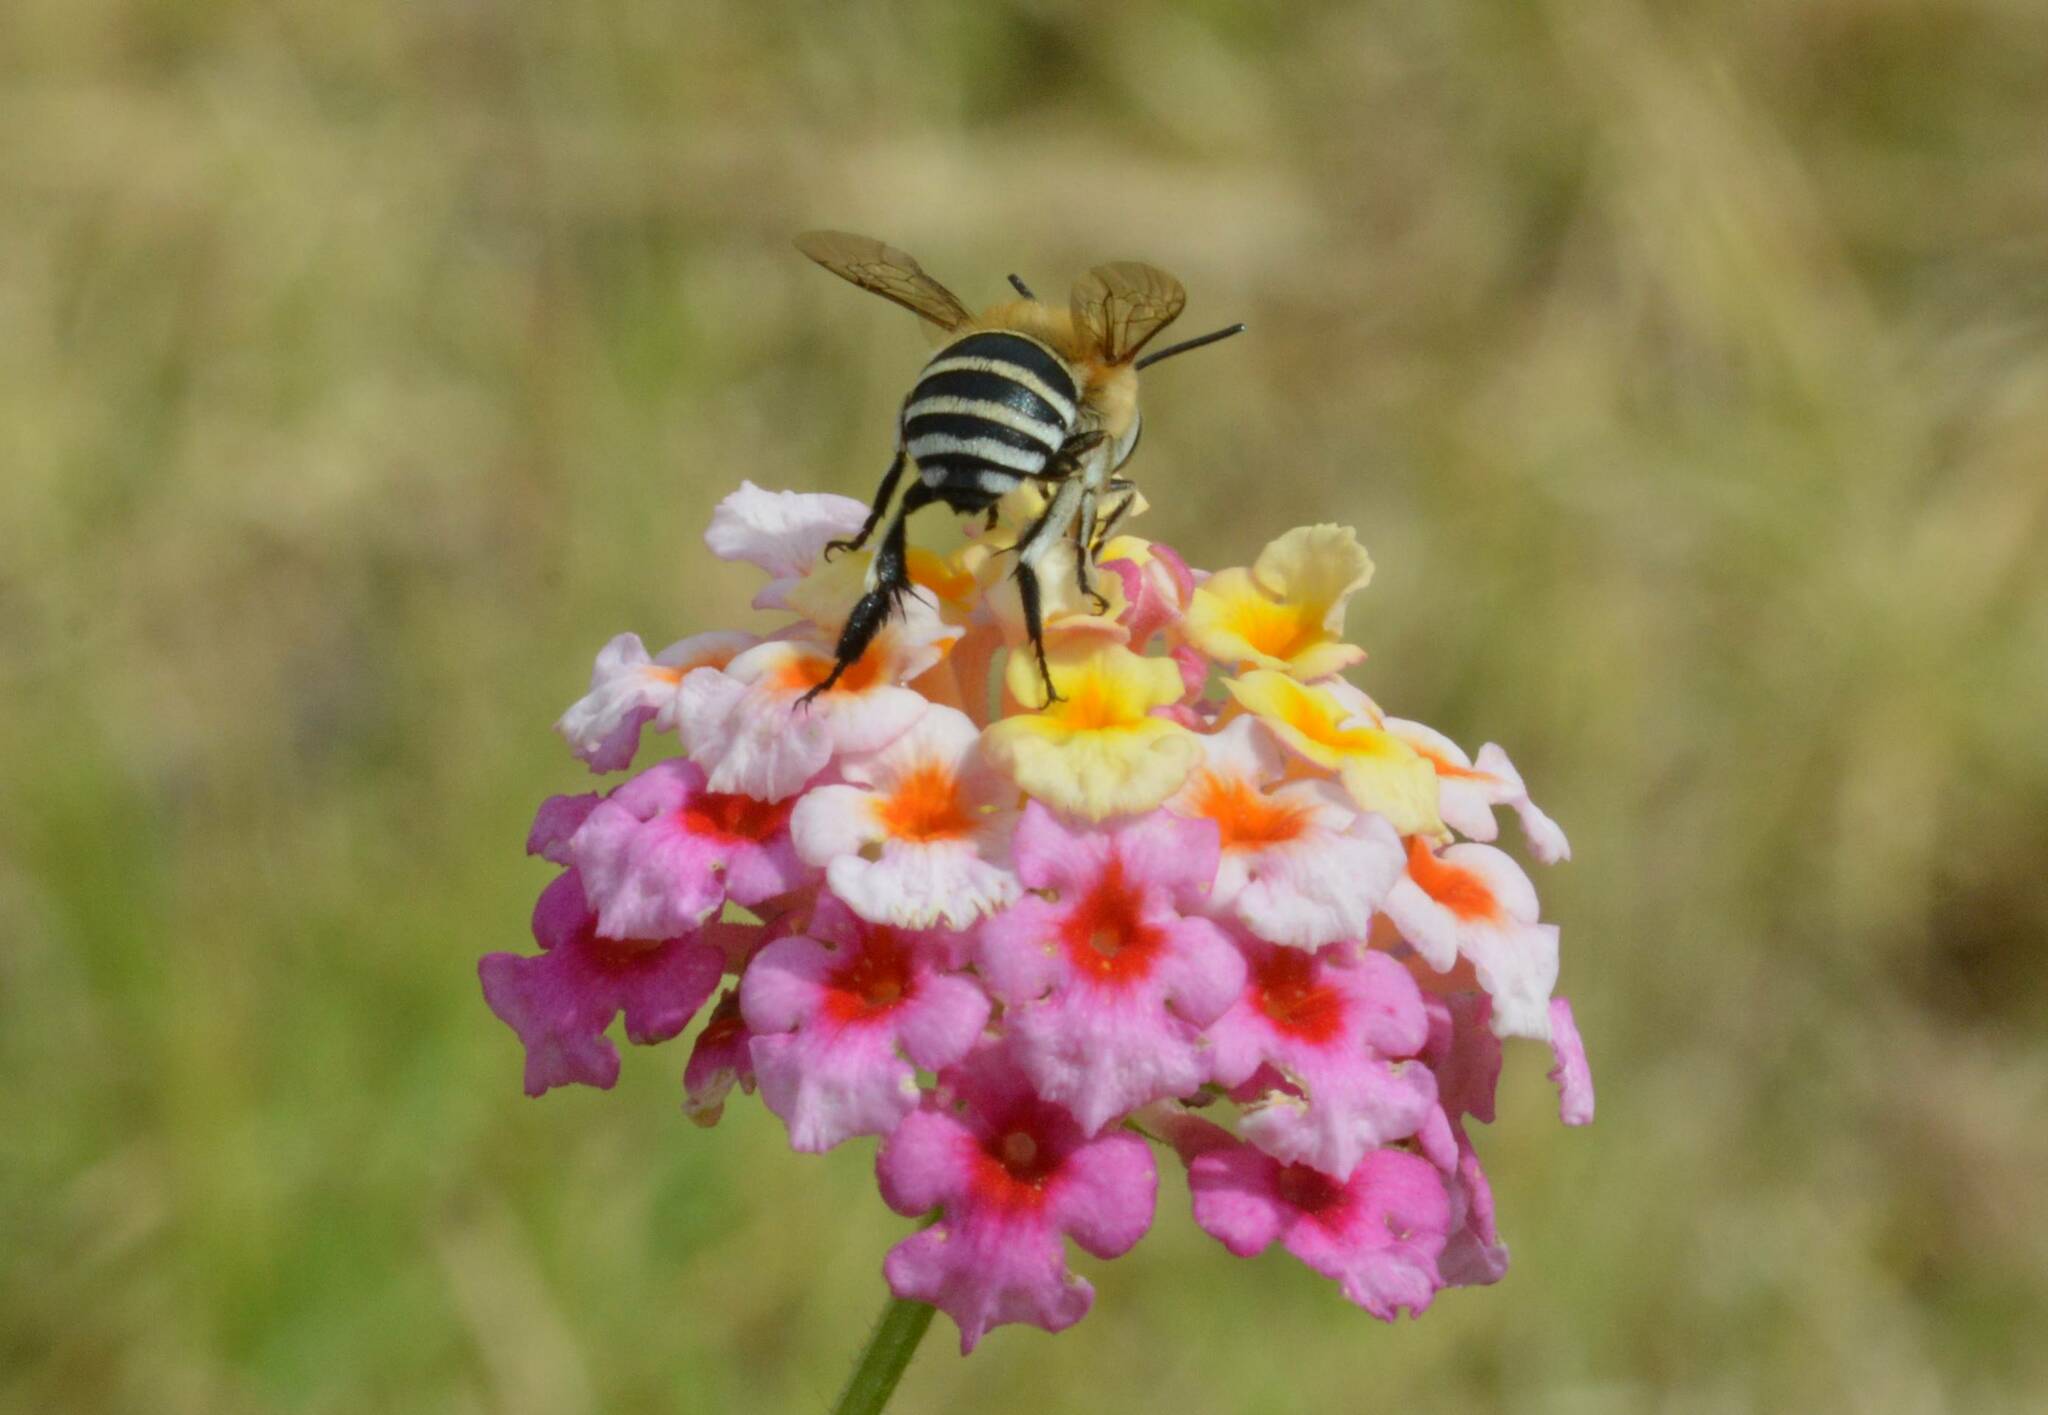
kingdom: Animalia
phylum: Arthropoda
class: Insecta
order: Hymenoptera
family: Apidae
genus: Amegilla
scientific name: Amegilla quadrifasciata
